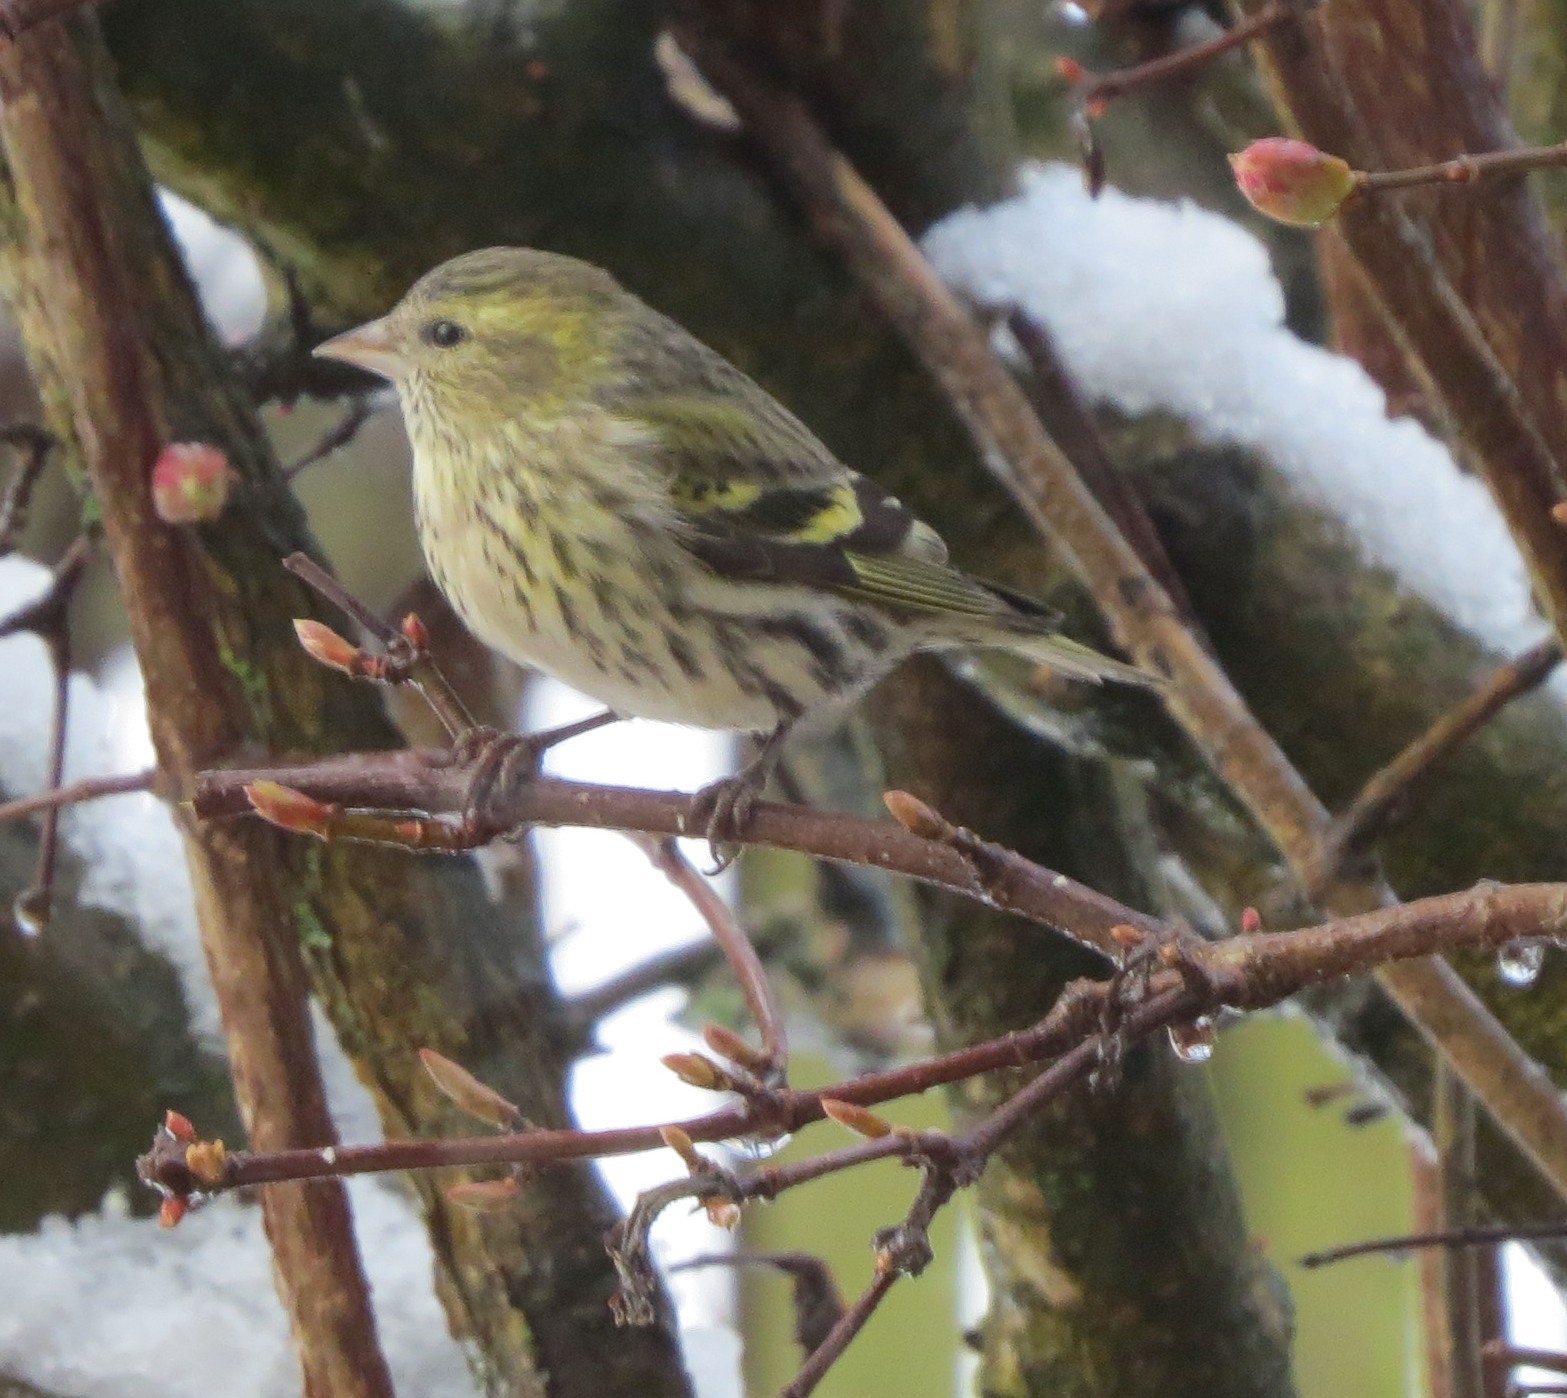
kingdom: Animalia
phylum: Chordata
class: Aves
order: Passeriformes
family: Fringillidae
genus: Spinus
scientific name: Spinus spinus
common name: Eurasian siskin
